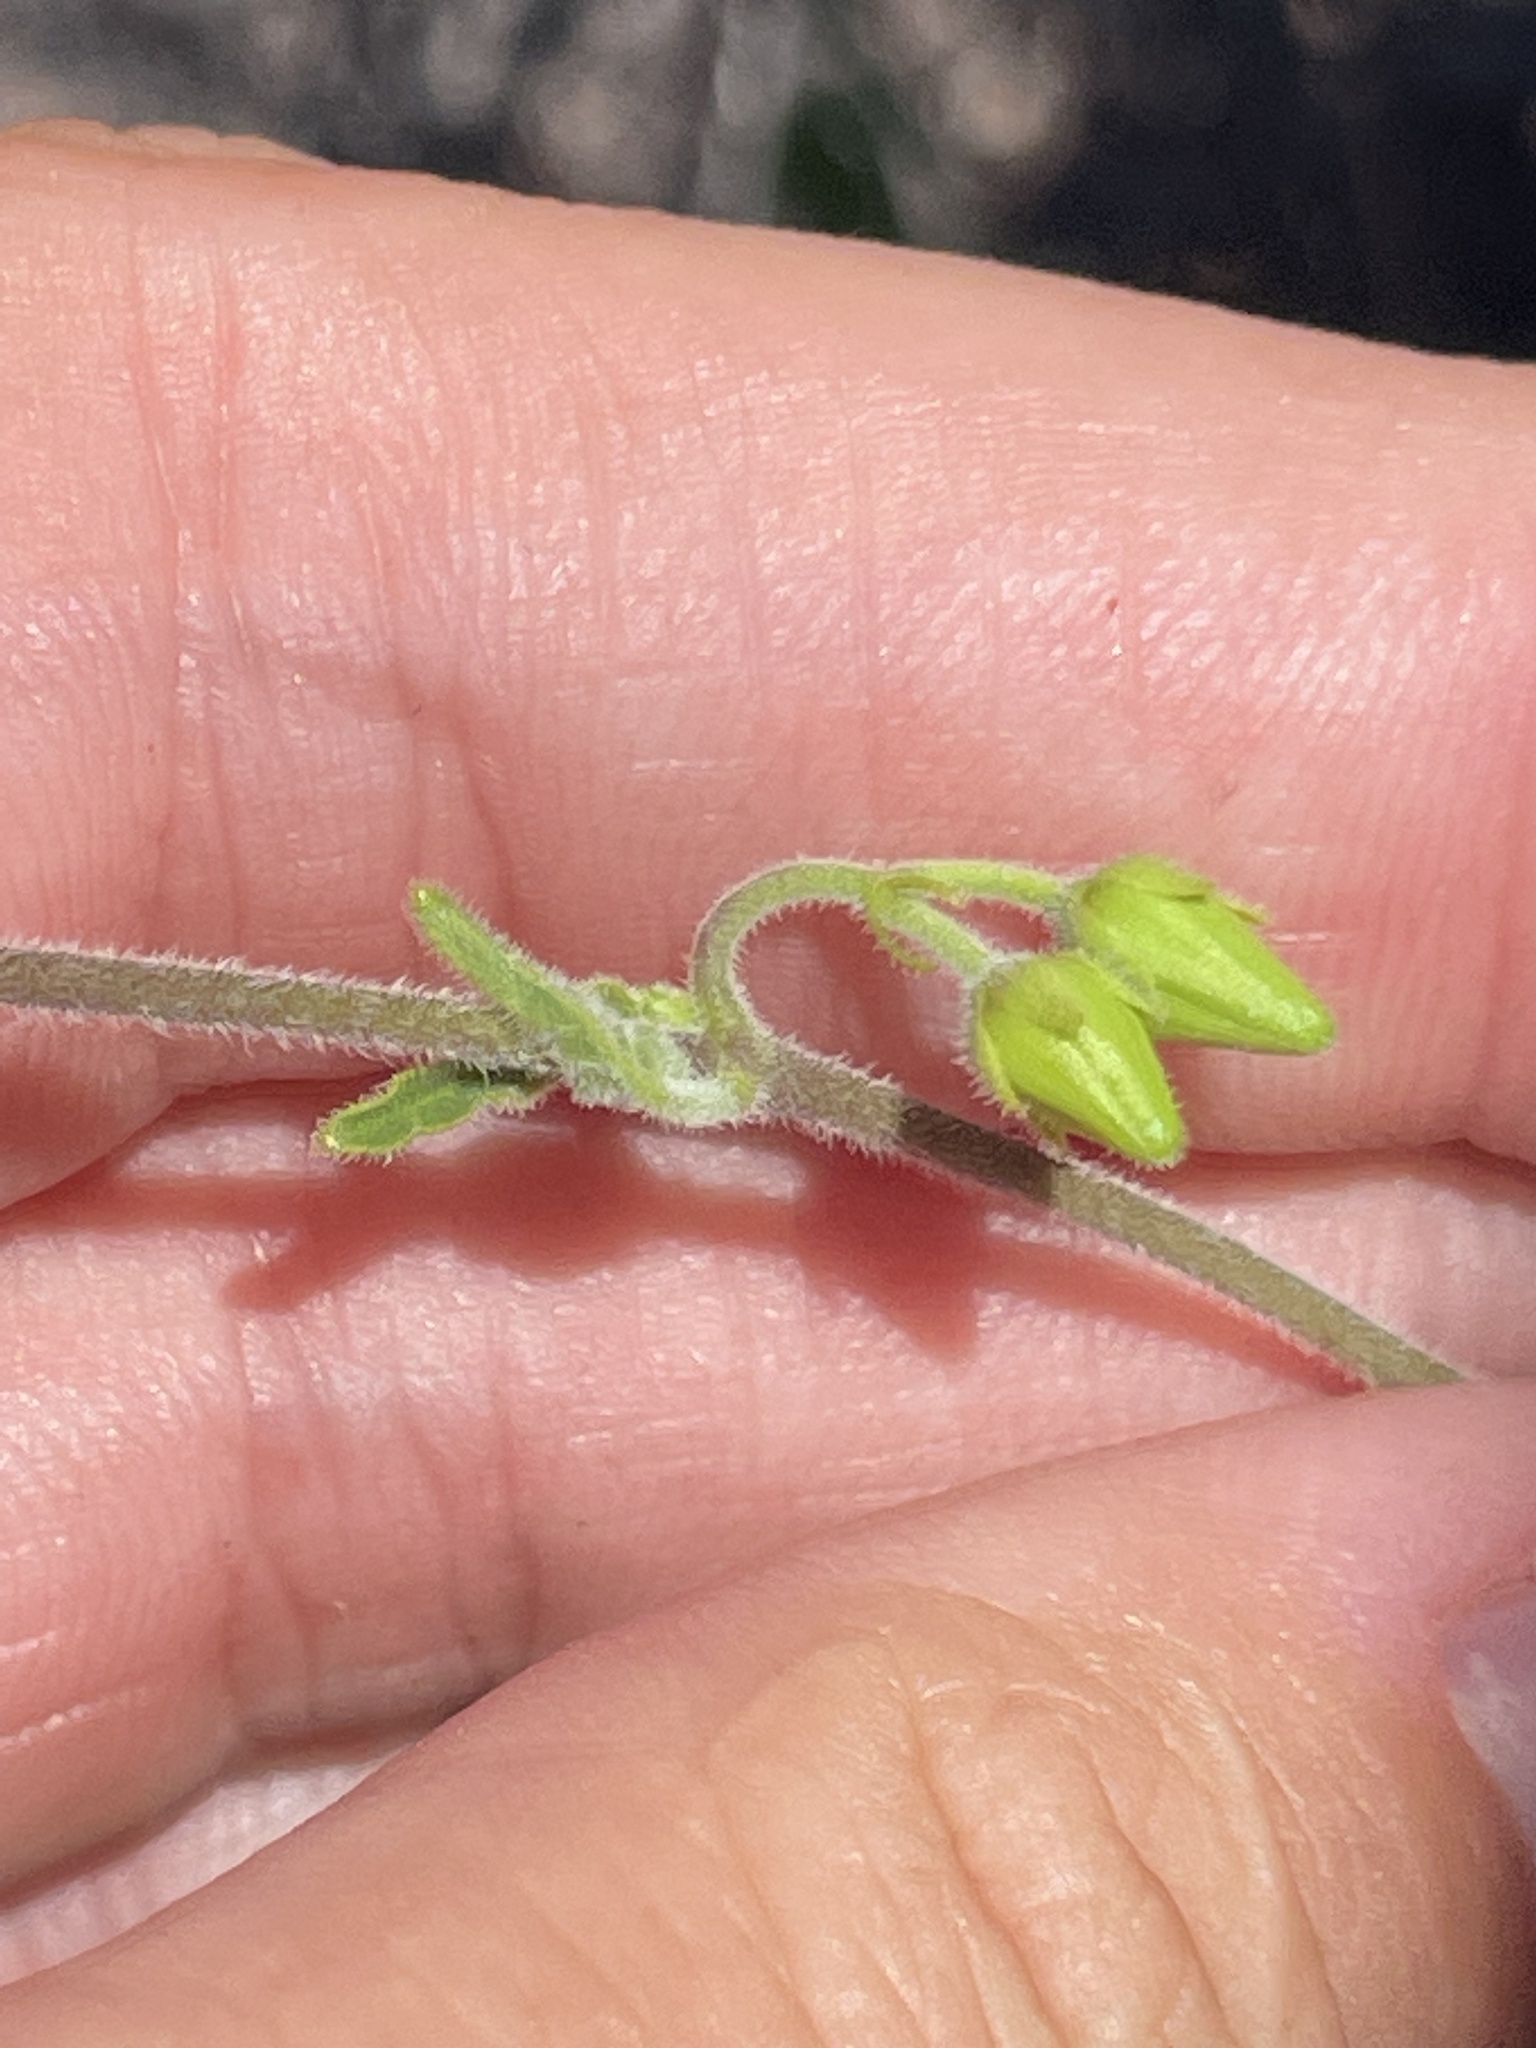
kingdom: Plantae
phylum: Tracheophyta
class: Magnoliopsida
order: Gentianales
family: Apocynaceae
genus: Metastelma
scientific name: Metastelma pringlei
